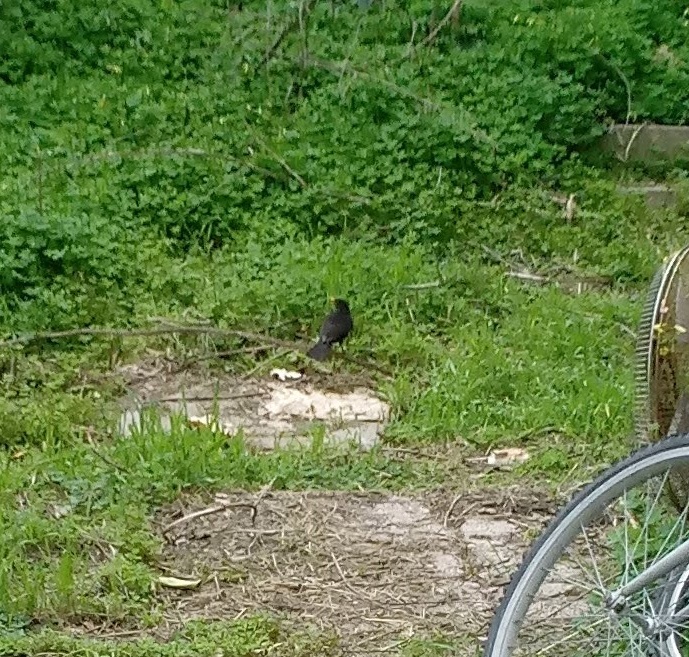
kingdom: Animalia
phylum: Chordata
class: Aves
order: Passeriformes
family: Turdidae
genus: Turdus
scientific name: Turdus merula
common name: Common blackbird
